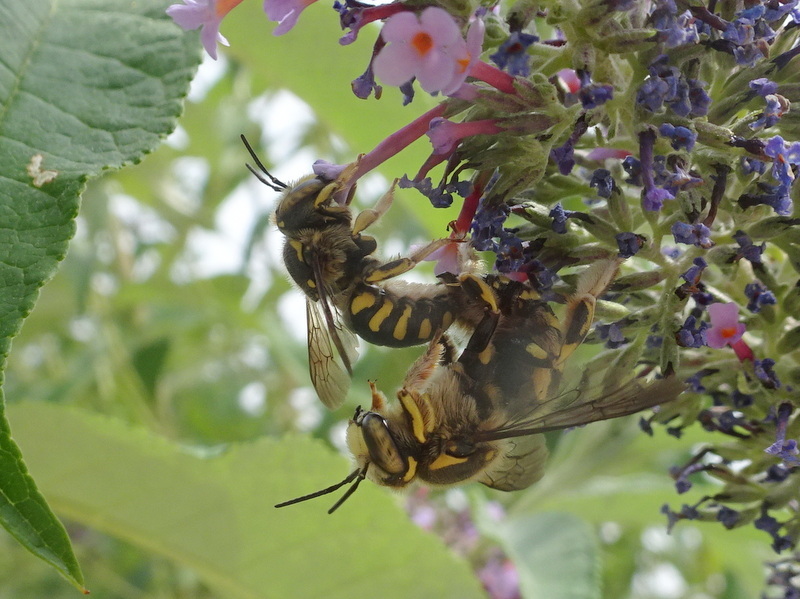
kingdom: Animalia
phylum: Arthropoda
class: Insecta
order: Hymenoptera
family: Megachilidae
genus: Anthidium
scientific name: Anthidium florentinum
